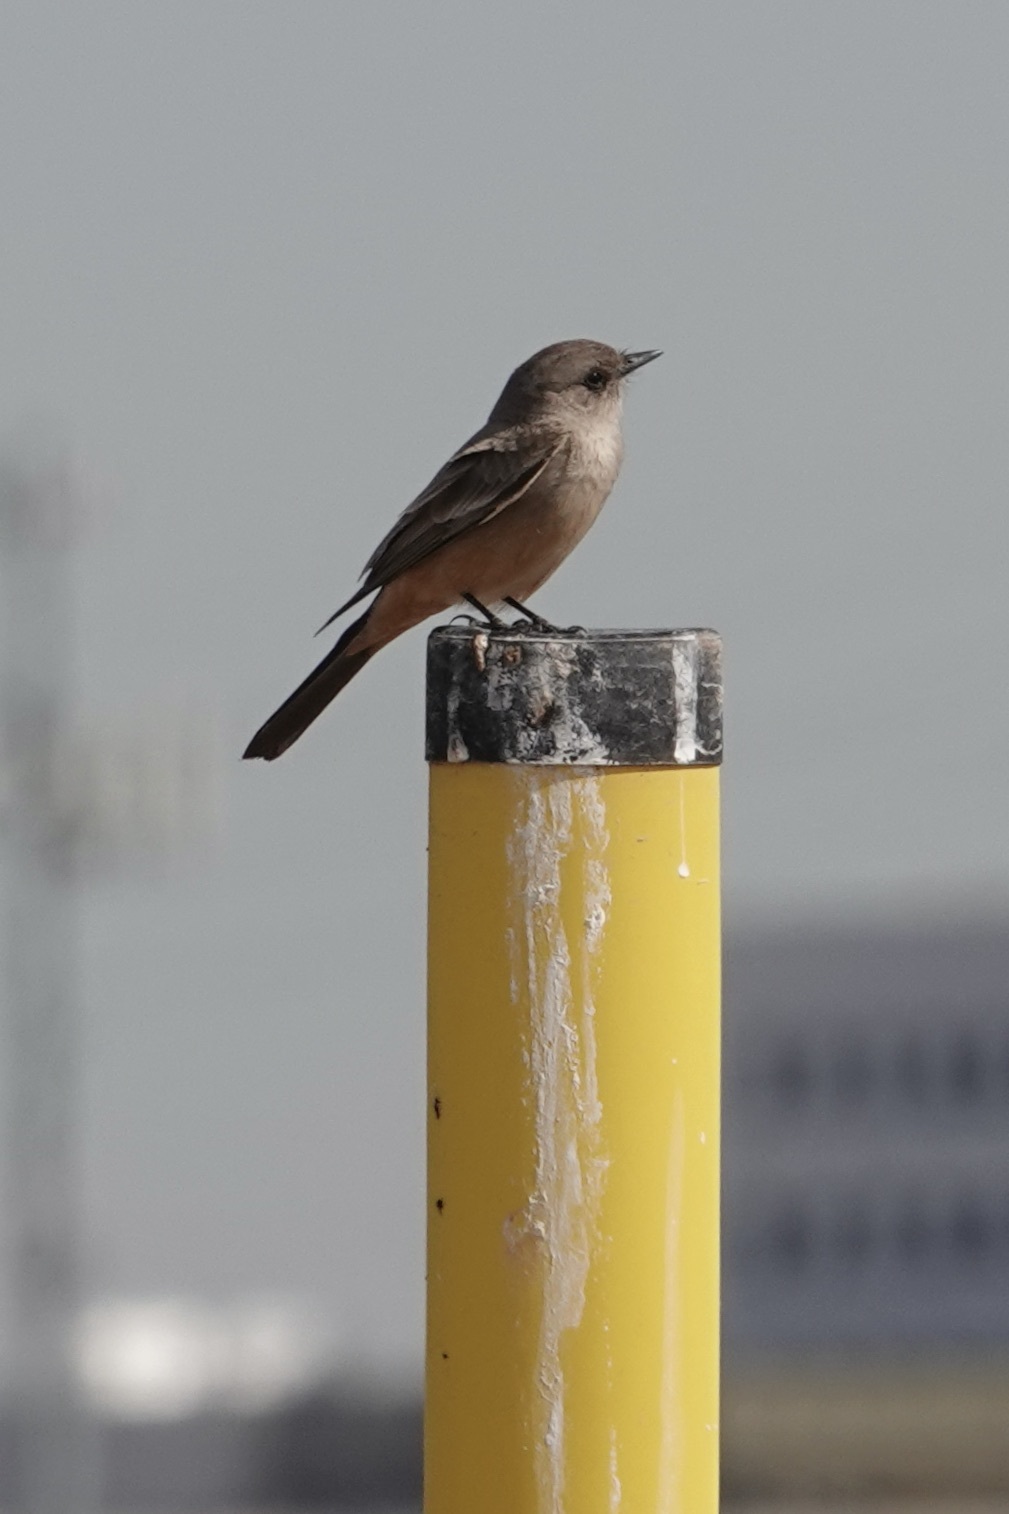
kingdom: Animalia
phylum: Chordata
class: Aves
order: Passeriformes
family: Tyrannidae
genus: Sayornis
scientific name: Sayornis saya
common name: Say's phoebe
